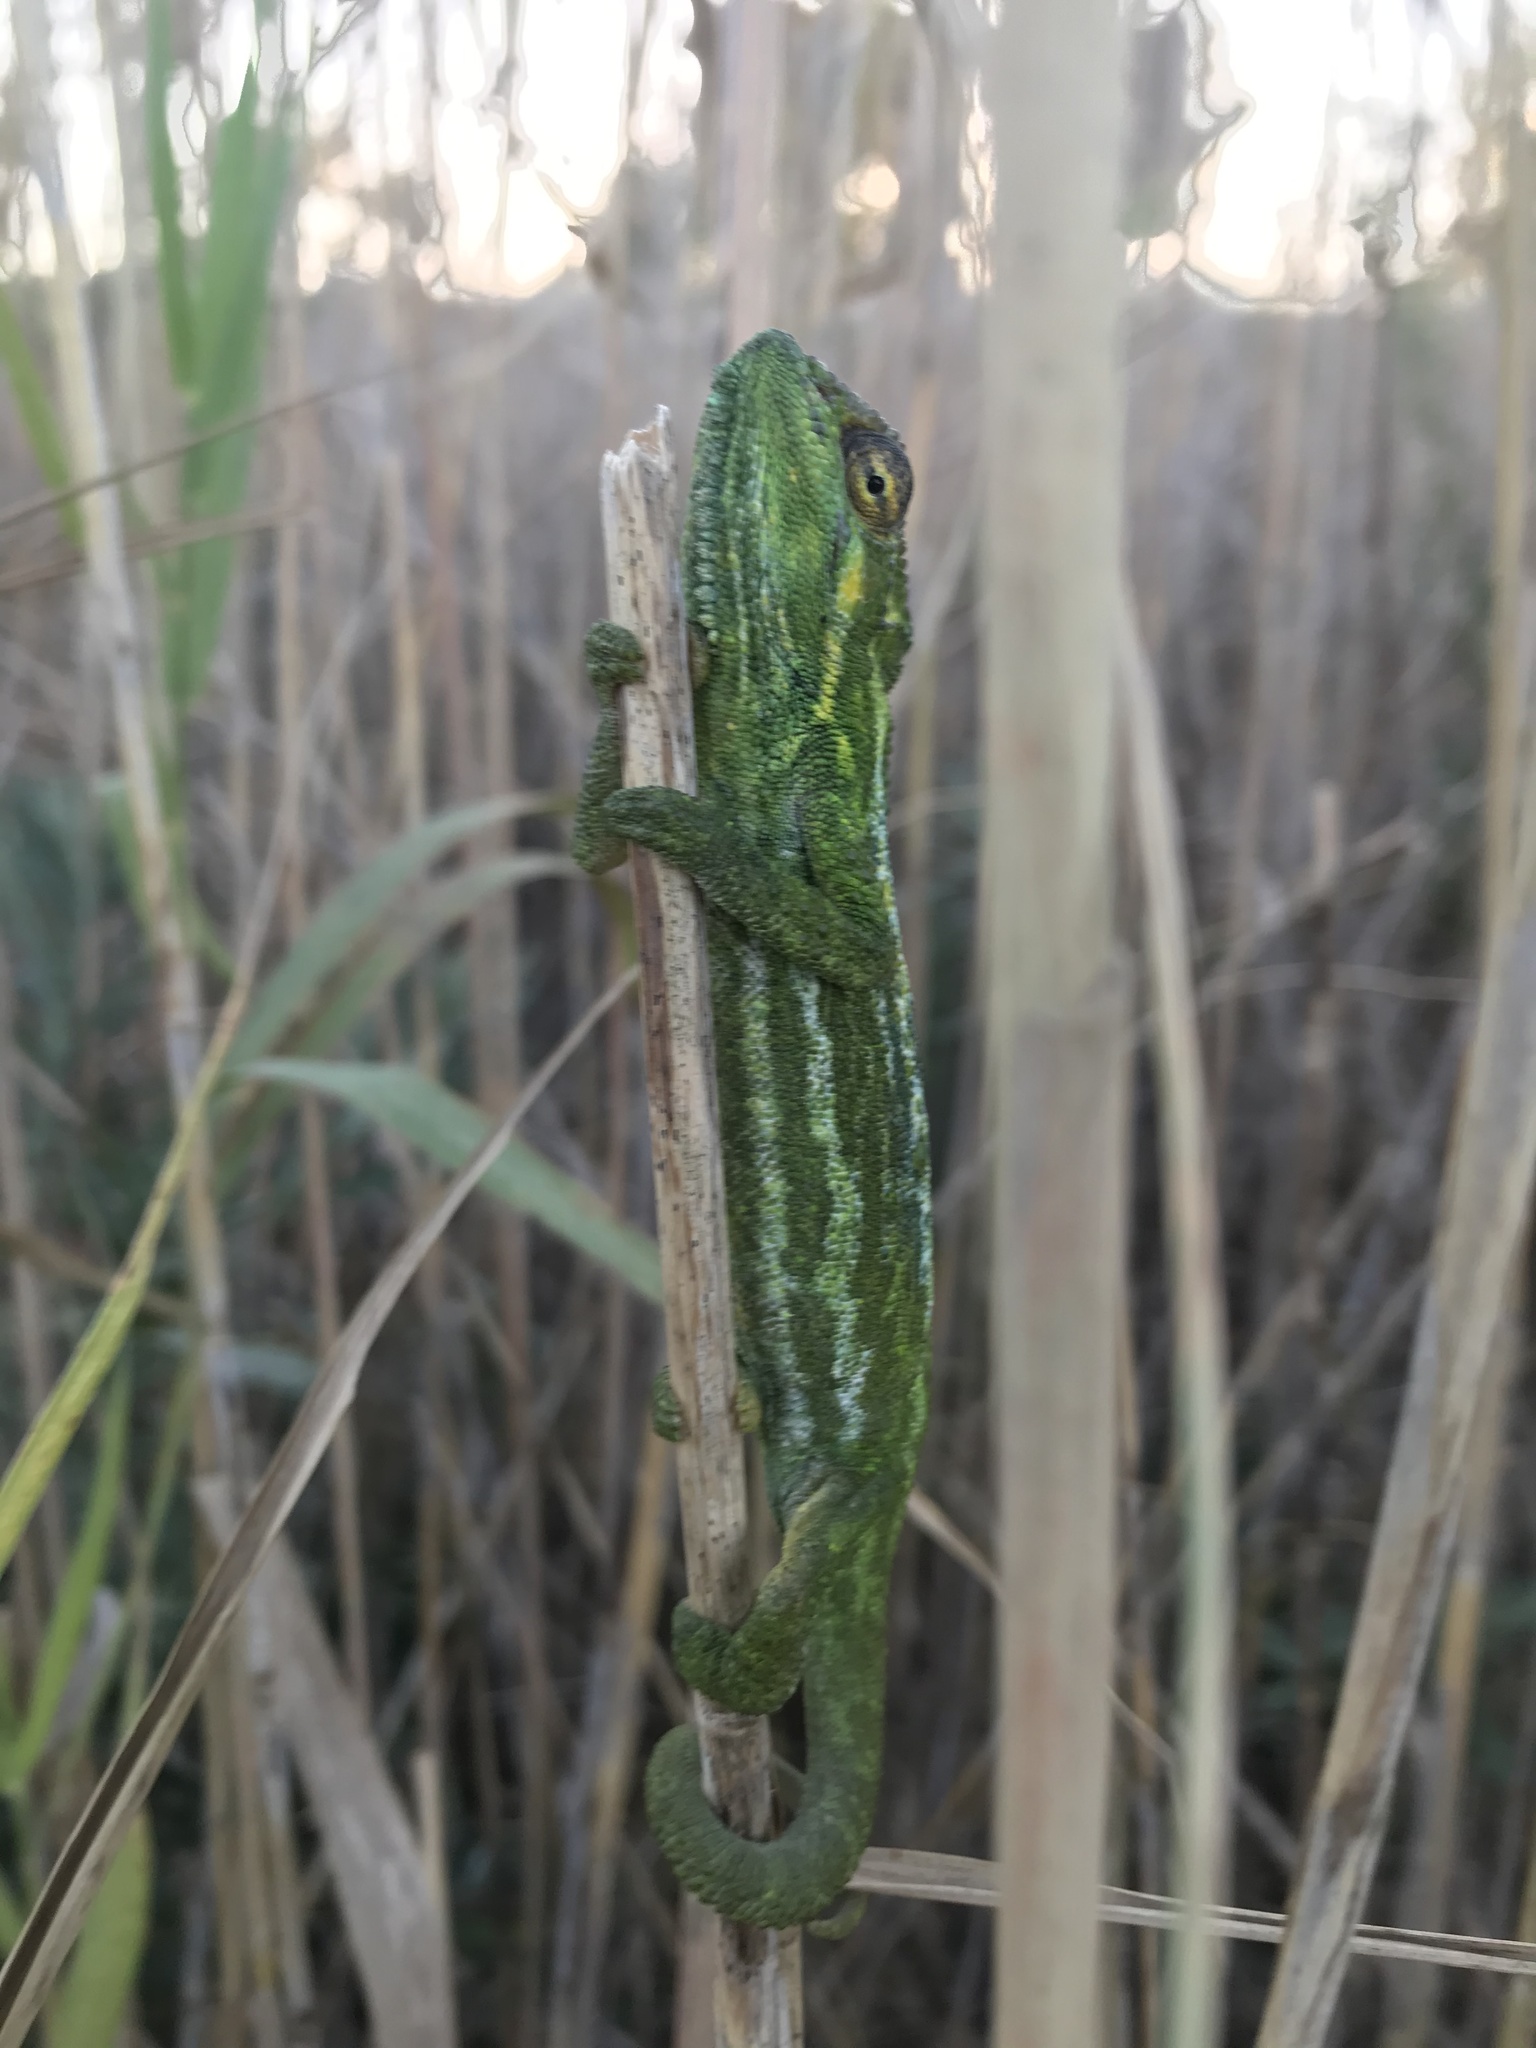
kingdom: Animalia
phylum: Chordata
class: Squamata
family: Chamaeleonidae
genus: Bradypodion
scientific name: Bradypodion pumilum
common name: Cape dwarf chameleon
